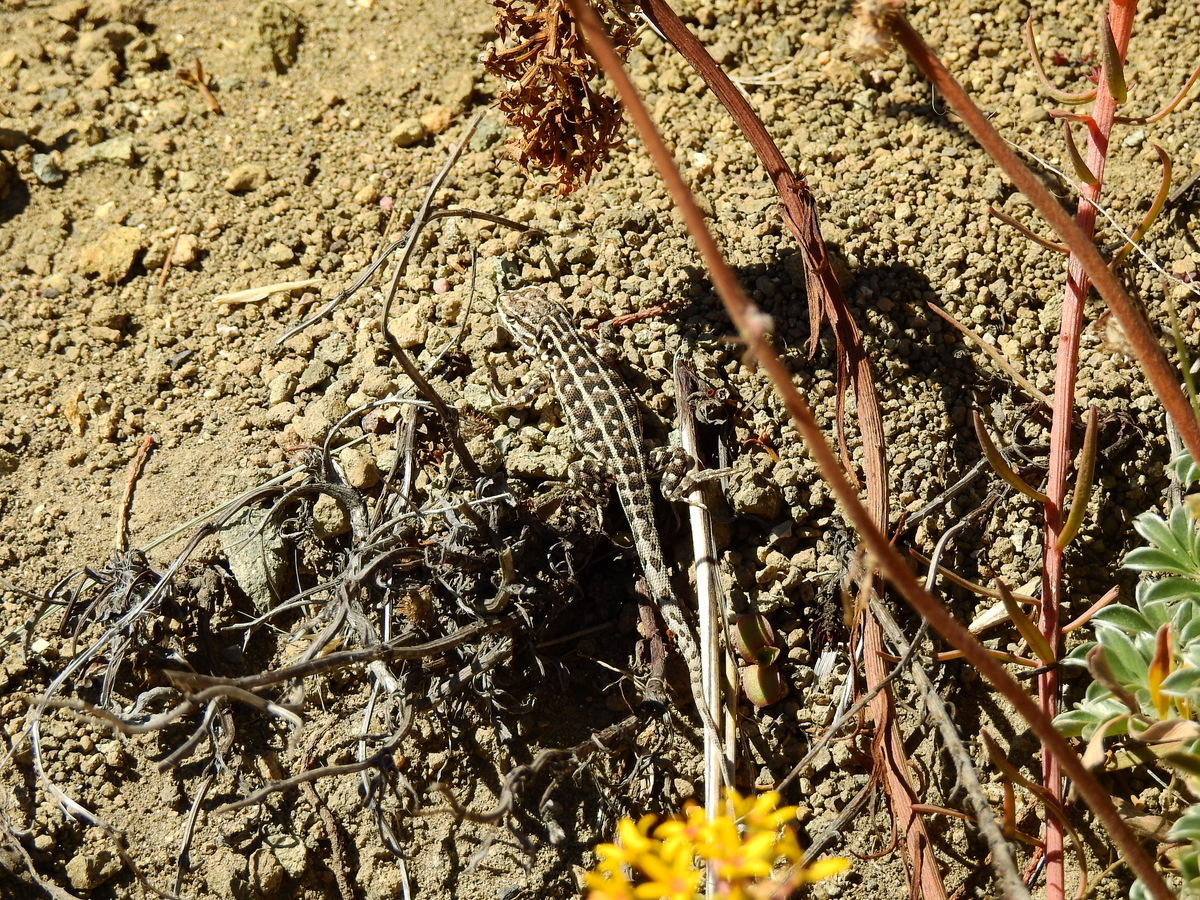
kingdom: Animalia
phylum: Chordata
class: Squamata
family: Liolaemidae
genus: Liolaemus
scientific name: Liolaemus lineomaculatus
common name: Decorated tree iguana
